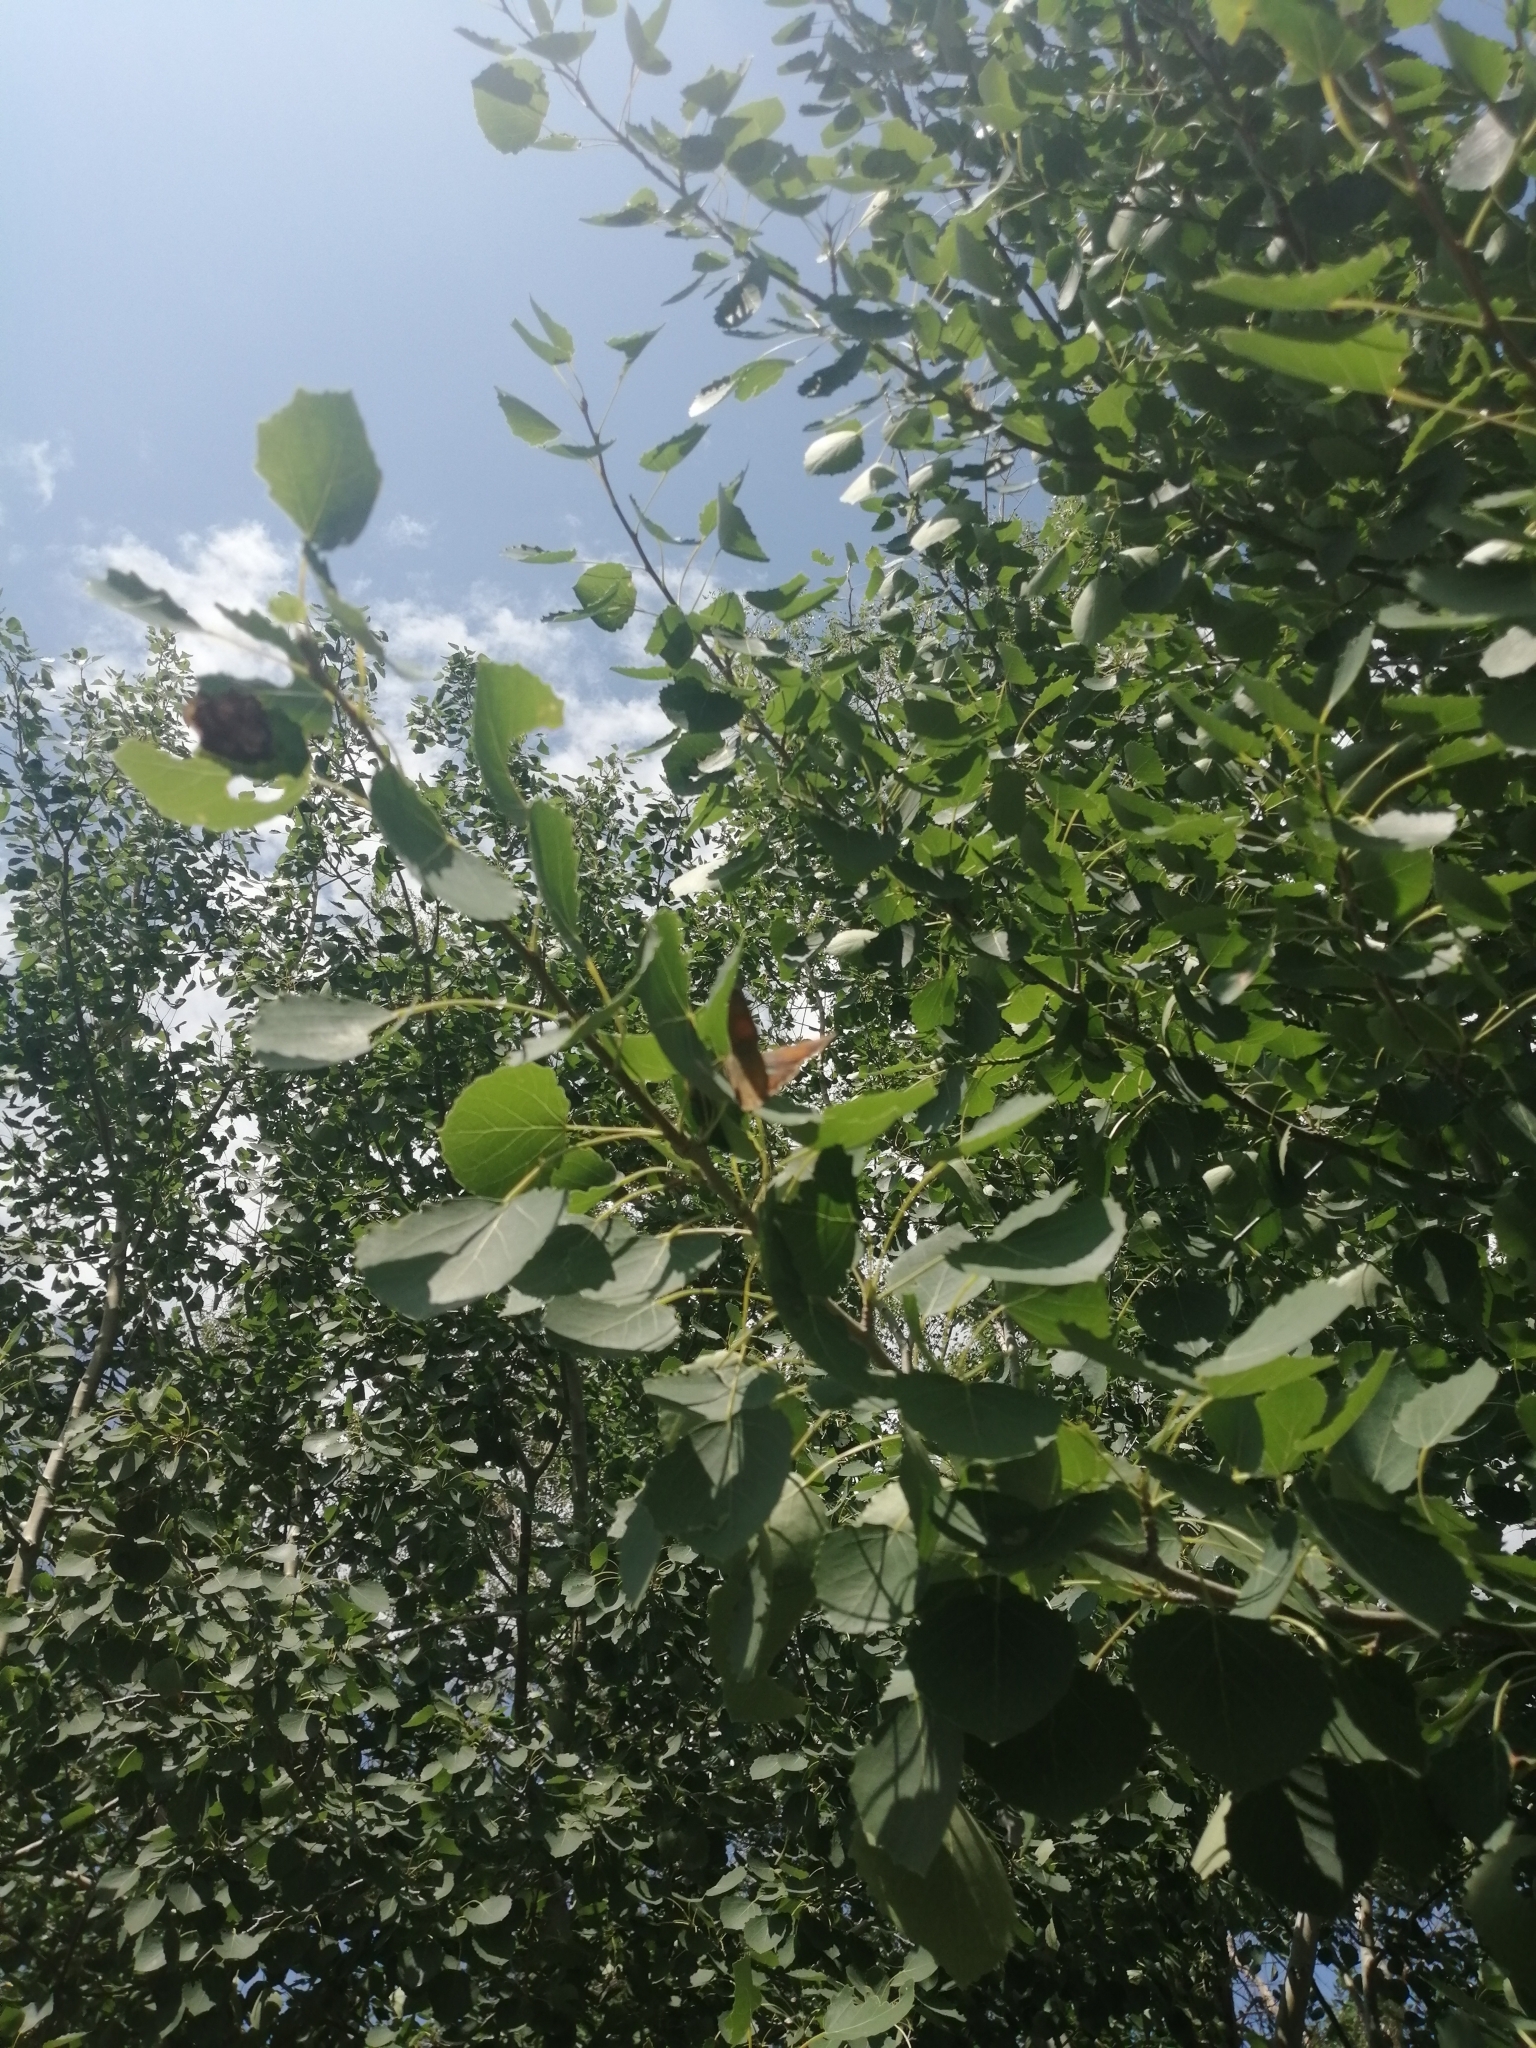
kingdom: Plantae
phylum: Tracheophyta
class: Magnoliopsida
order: Malpighiales
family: Salicaceae
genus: Populus
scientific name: Populus tremula
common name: European aspen
